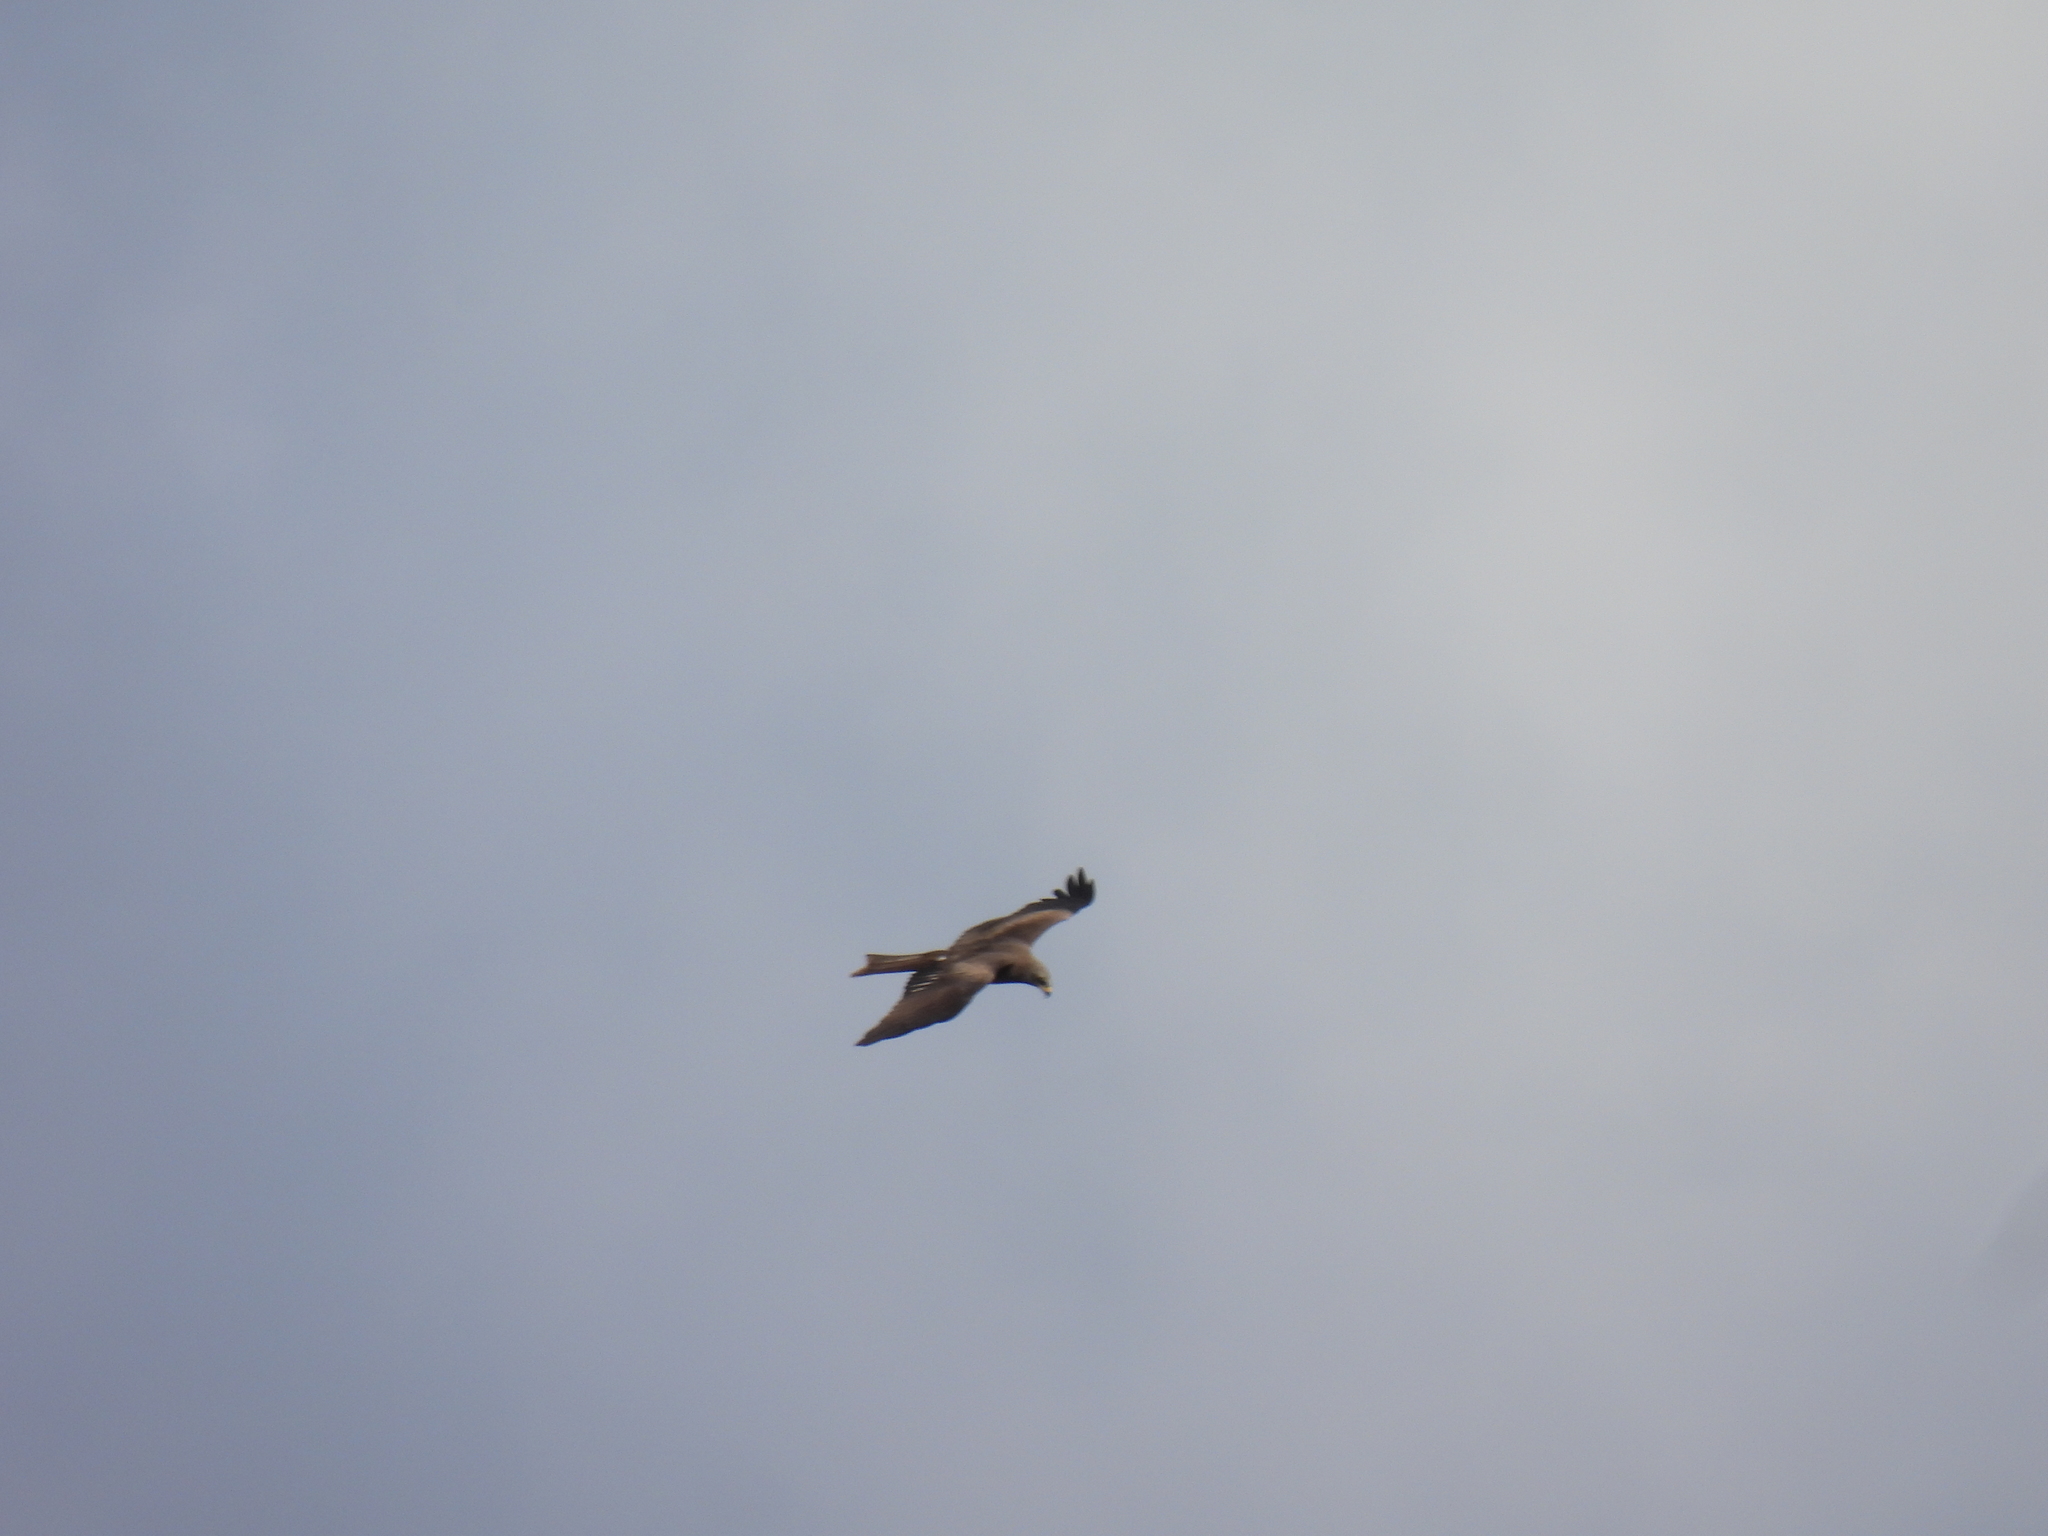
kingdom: Animalia
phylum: Chordata
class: Aves
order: Accipitriformes
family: Accipitridae
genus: Milvus
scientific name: Milvus migrans
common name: Black kite
